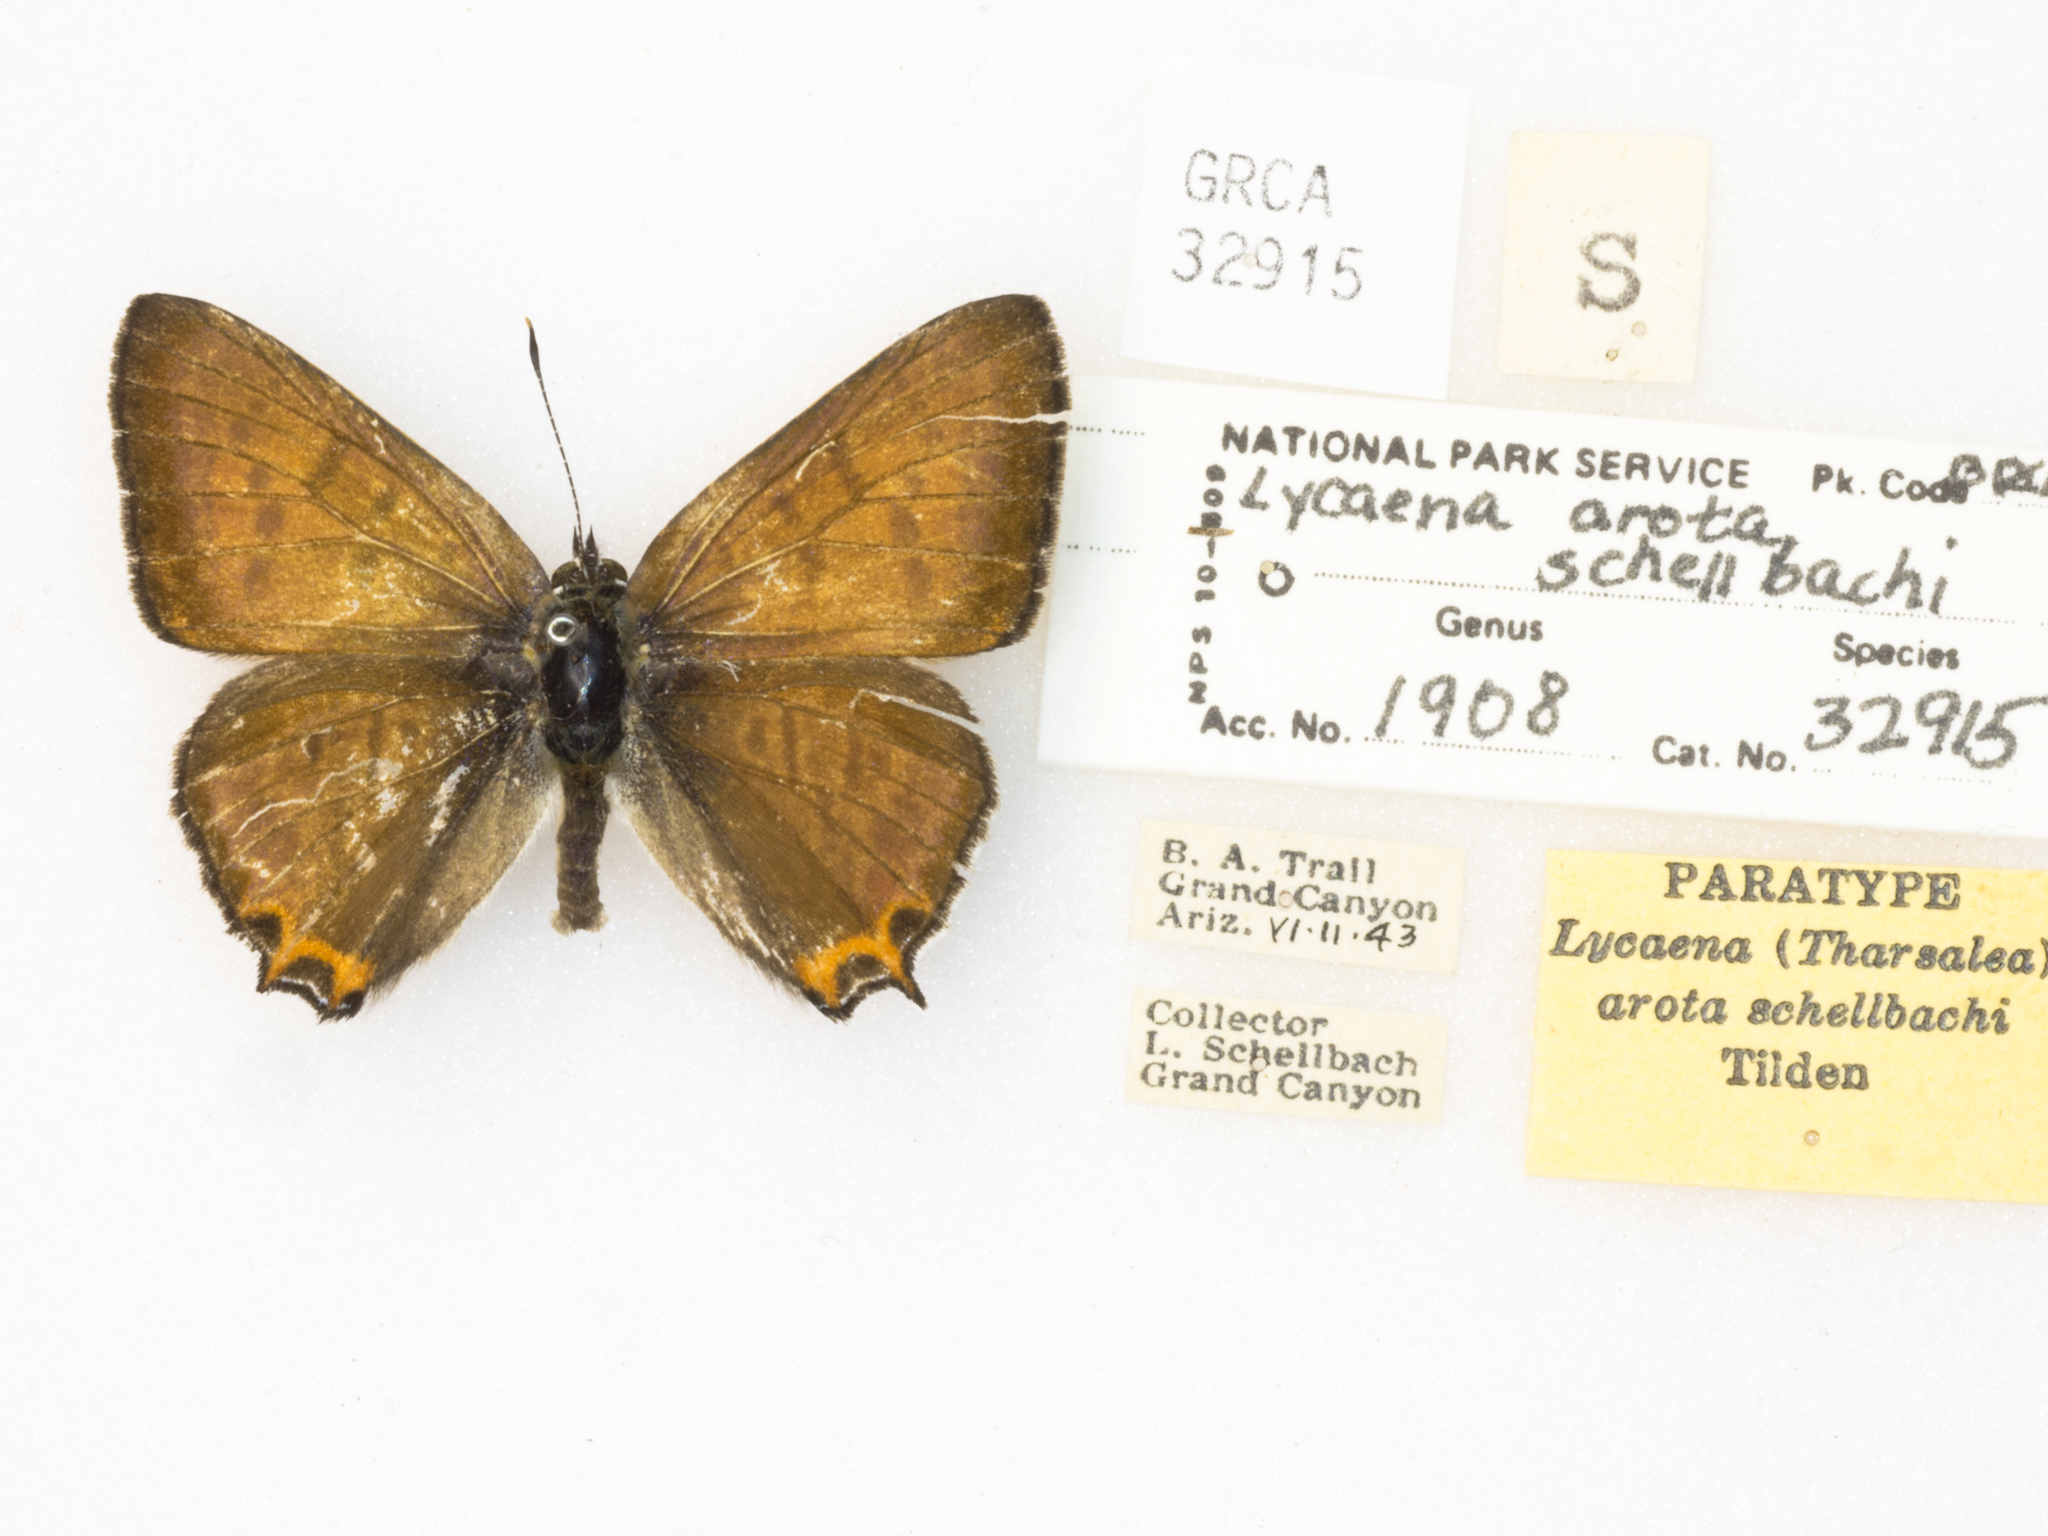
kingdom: Animalia
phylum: Arthropoda
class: Insecta
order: Lepidoptera
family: Lycaenidae
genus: Tharsalea
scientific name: Tharsalea arota
